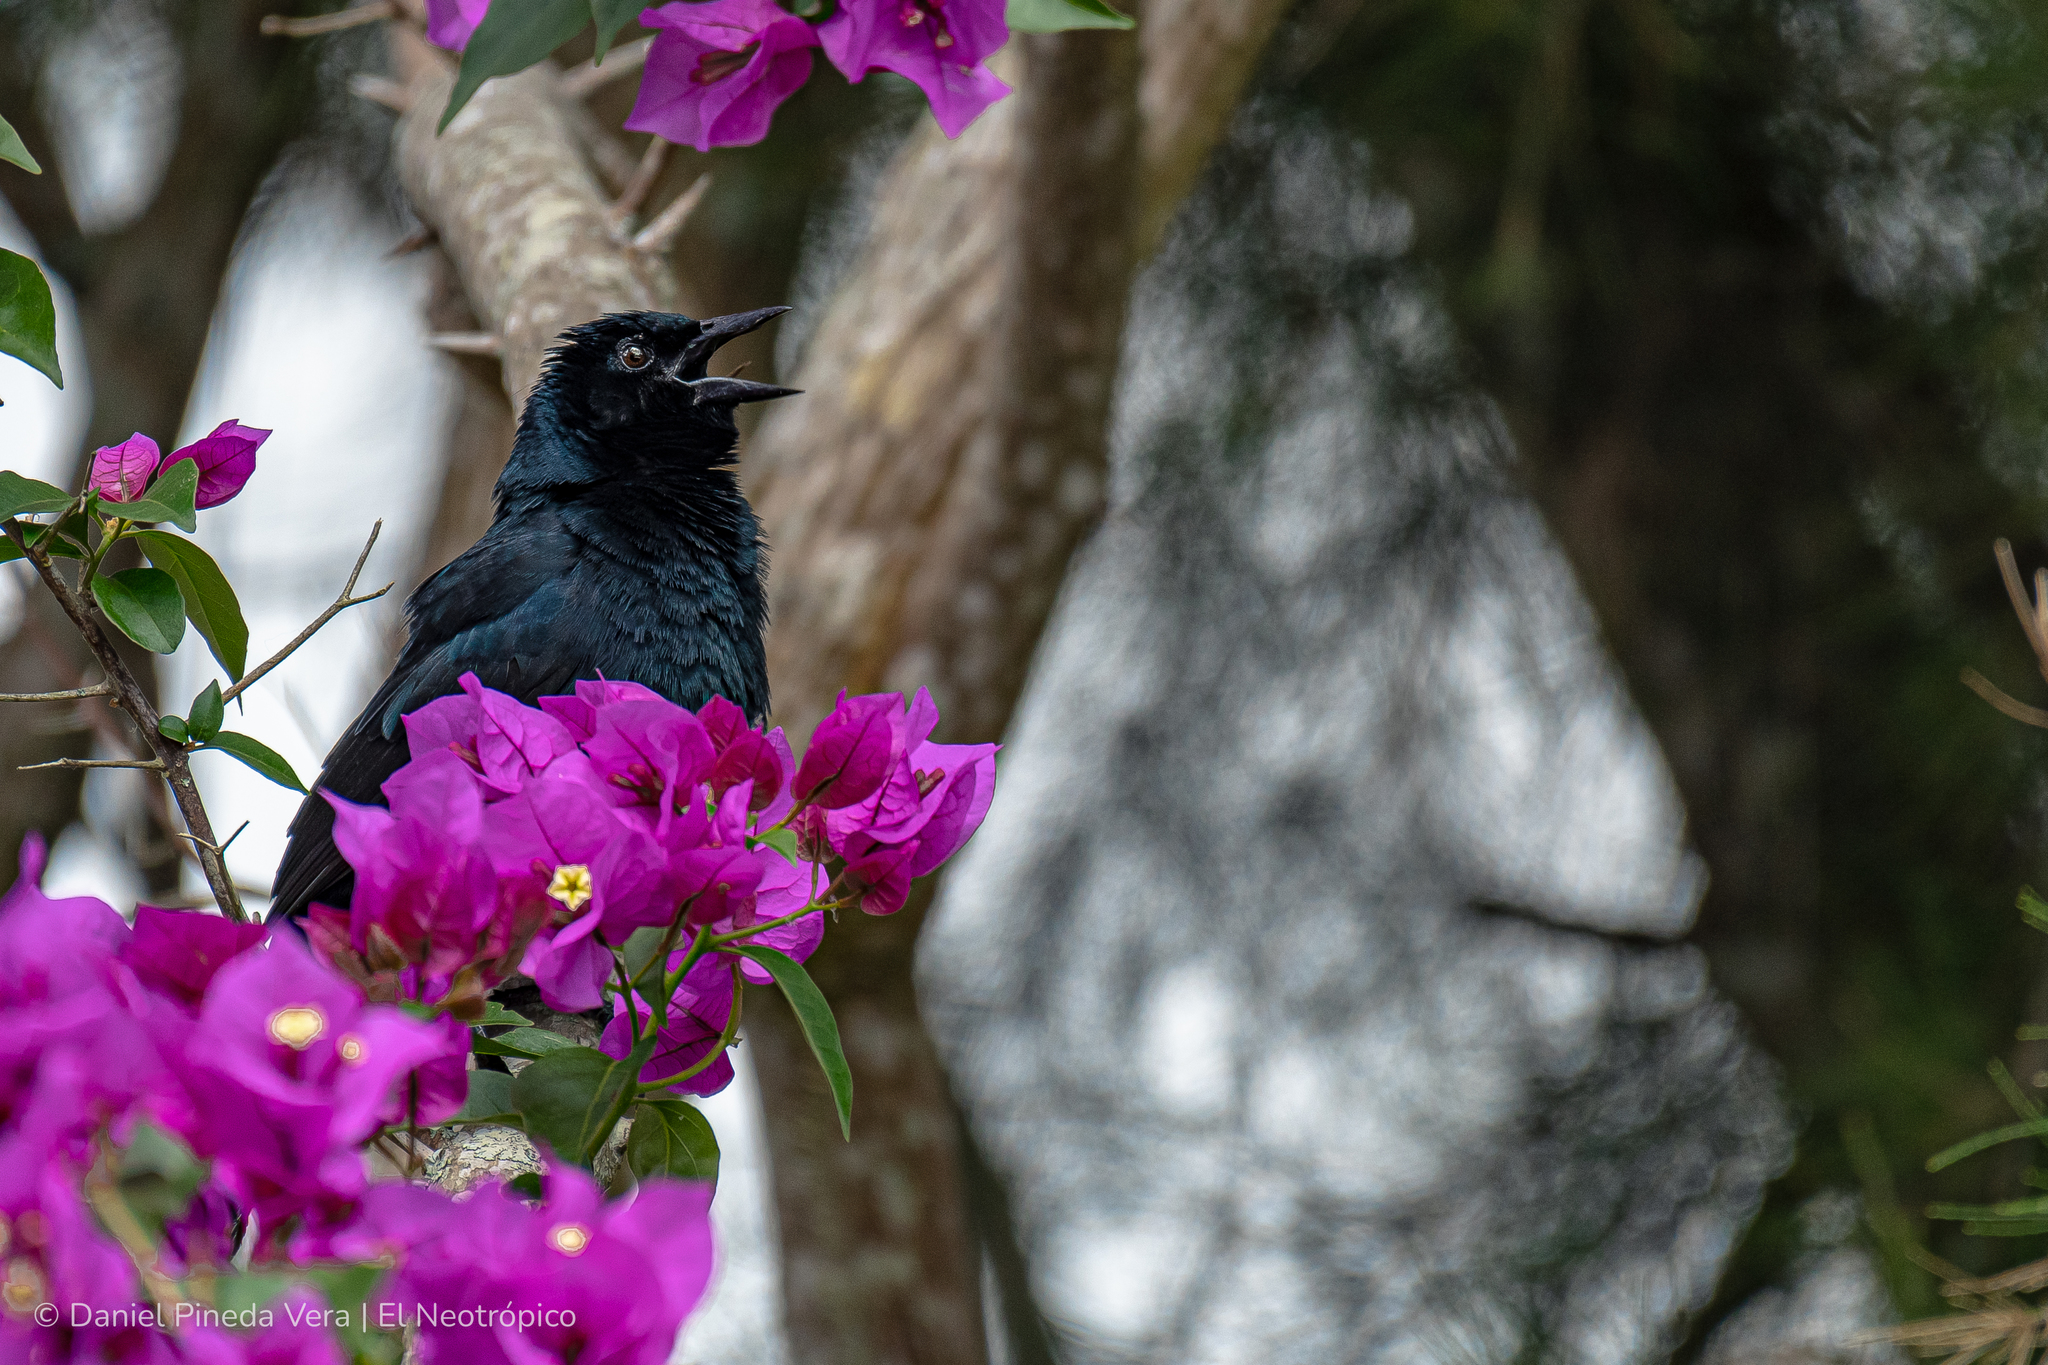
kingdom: Animalia
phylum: Chordata
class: Aves
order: Passeriformes
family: Icteridae
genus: Dives
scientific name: Dives dives
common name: Melodious blackbird
